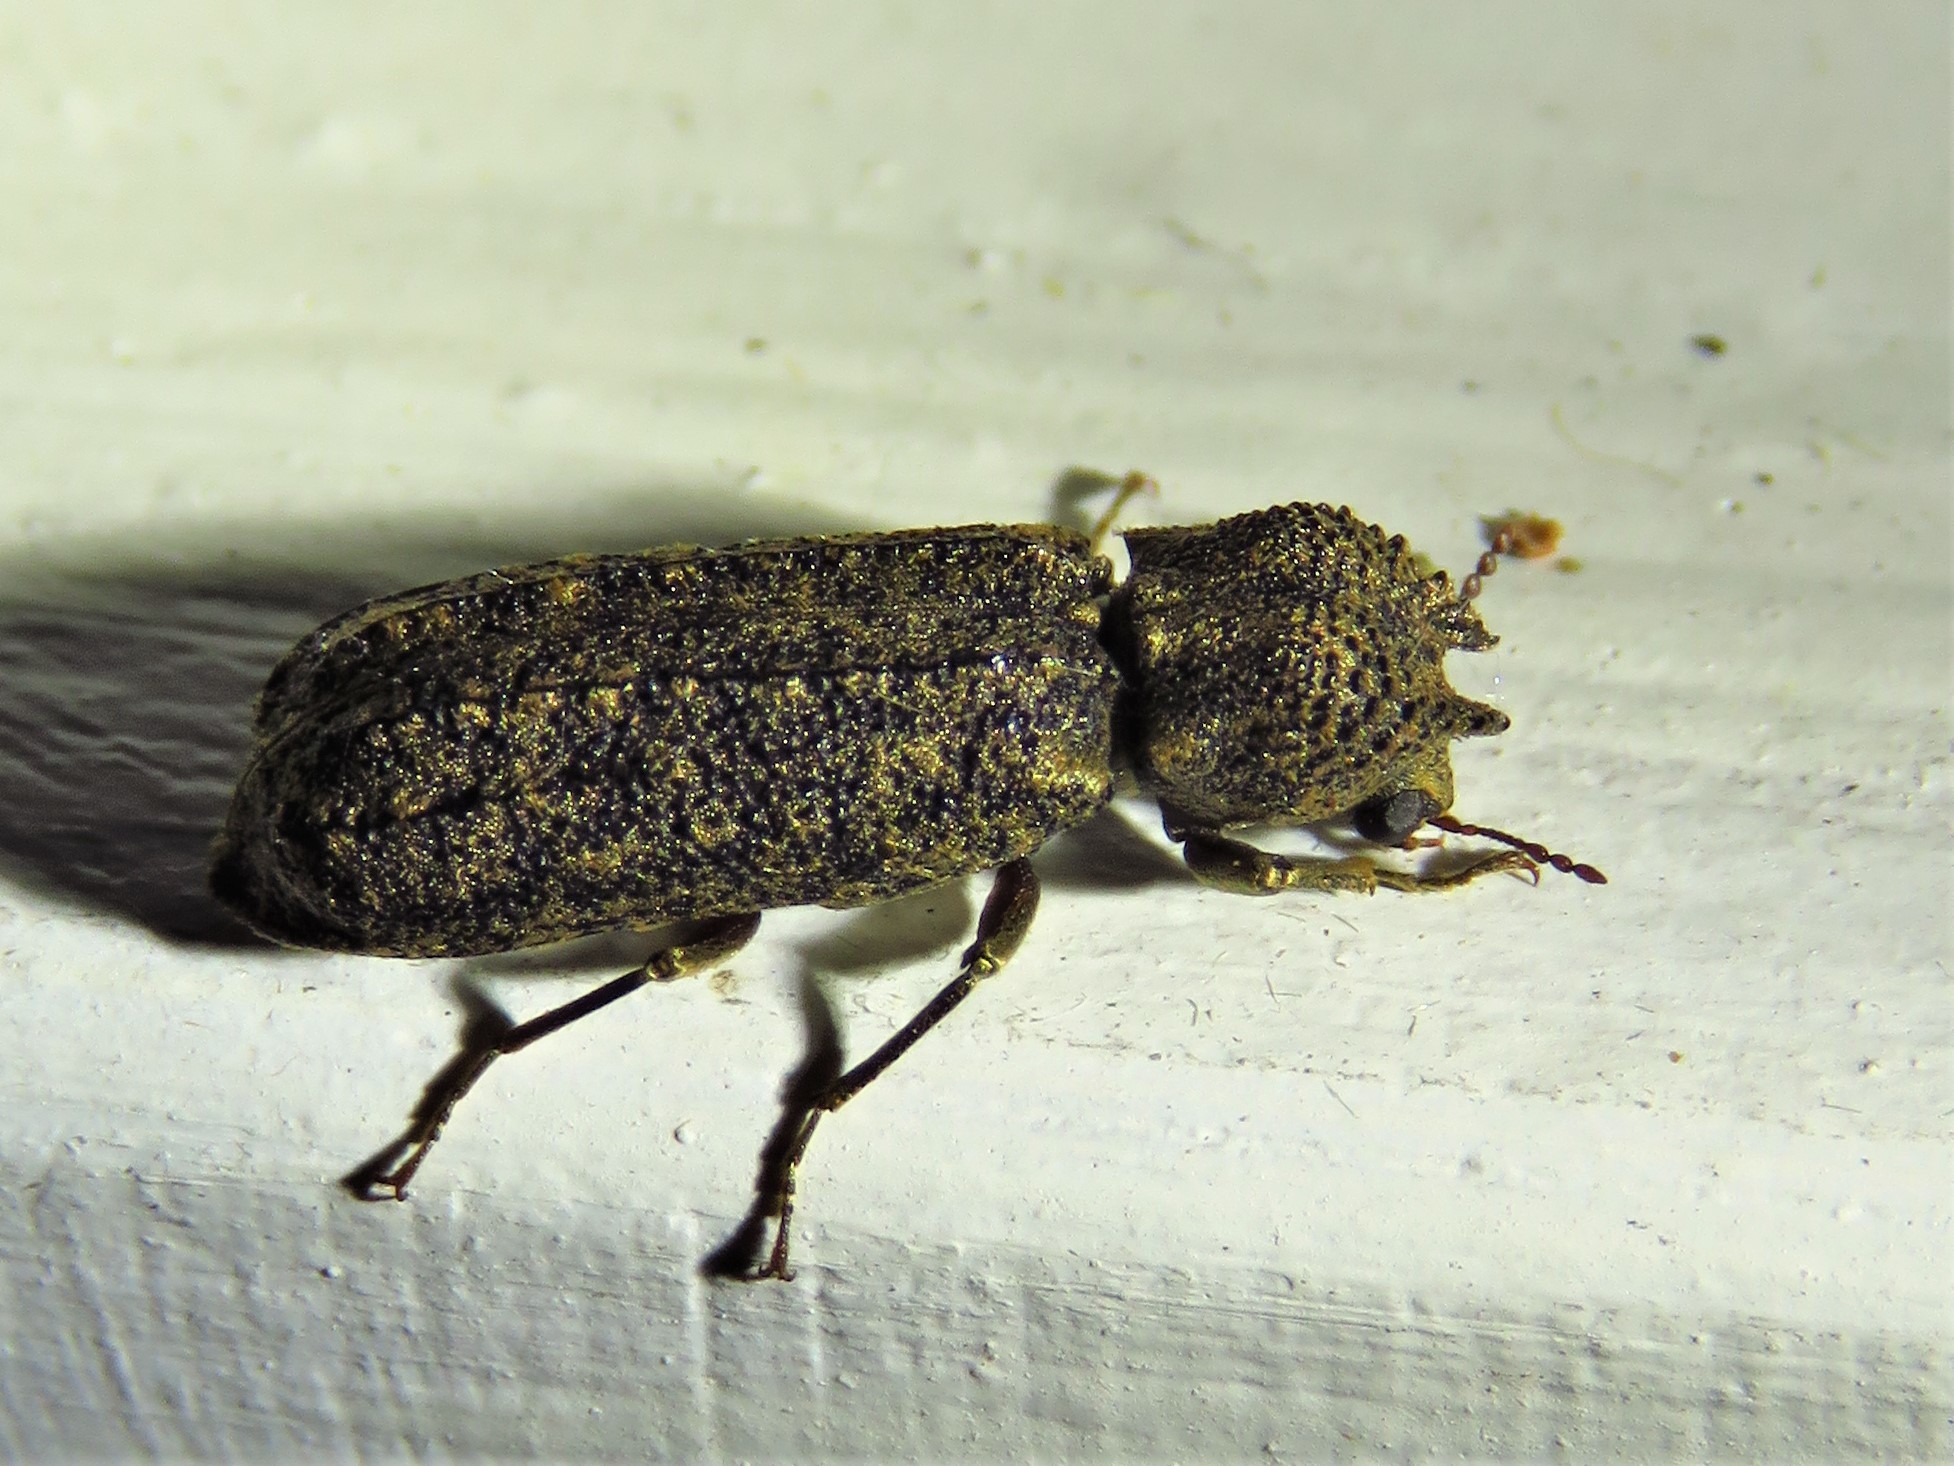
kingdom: Animalia
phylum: Arthropoda
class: Insecta
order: Coleoptera
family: Bostrichidae
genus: Lichenophanes
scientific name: Lichenophanes bicornis
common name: Two-horned powder-post beetle
